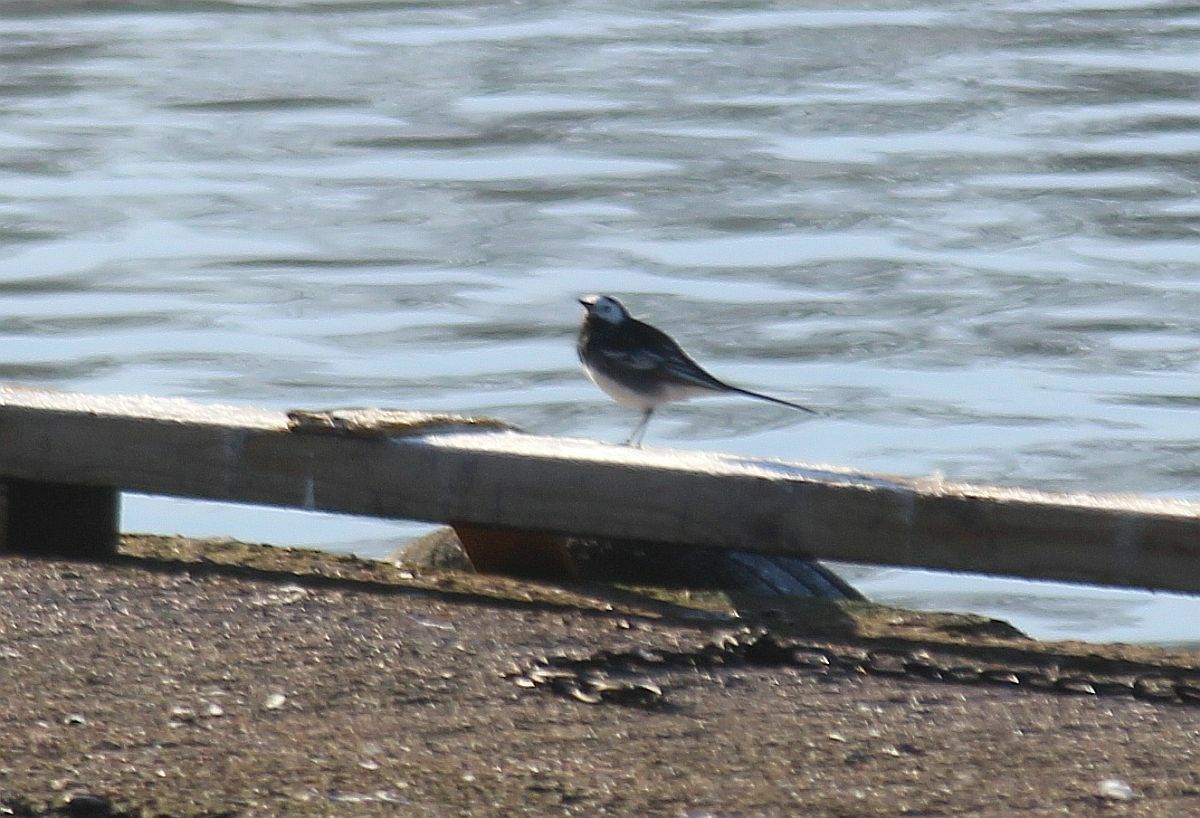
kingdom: Animalia
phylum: Chordata
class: Aves
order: Passeriformes
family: Motacillidae
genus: Motacilla
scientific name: Motacilla alba
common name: White wagtail
